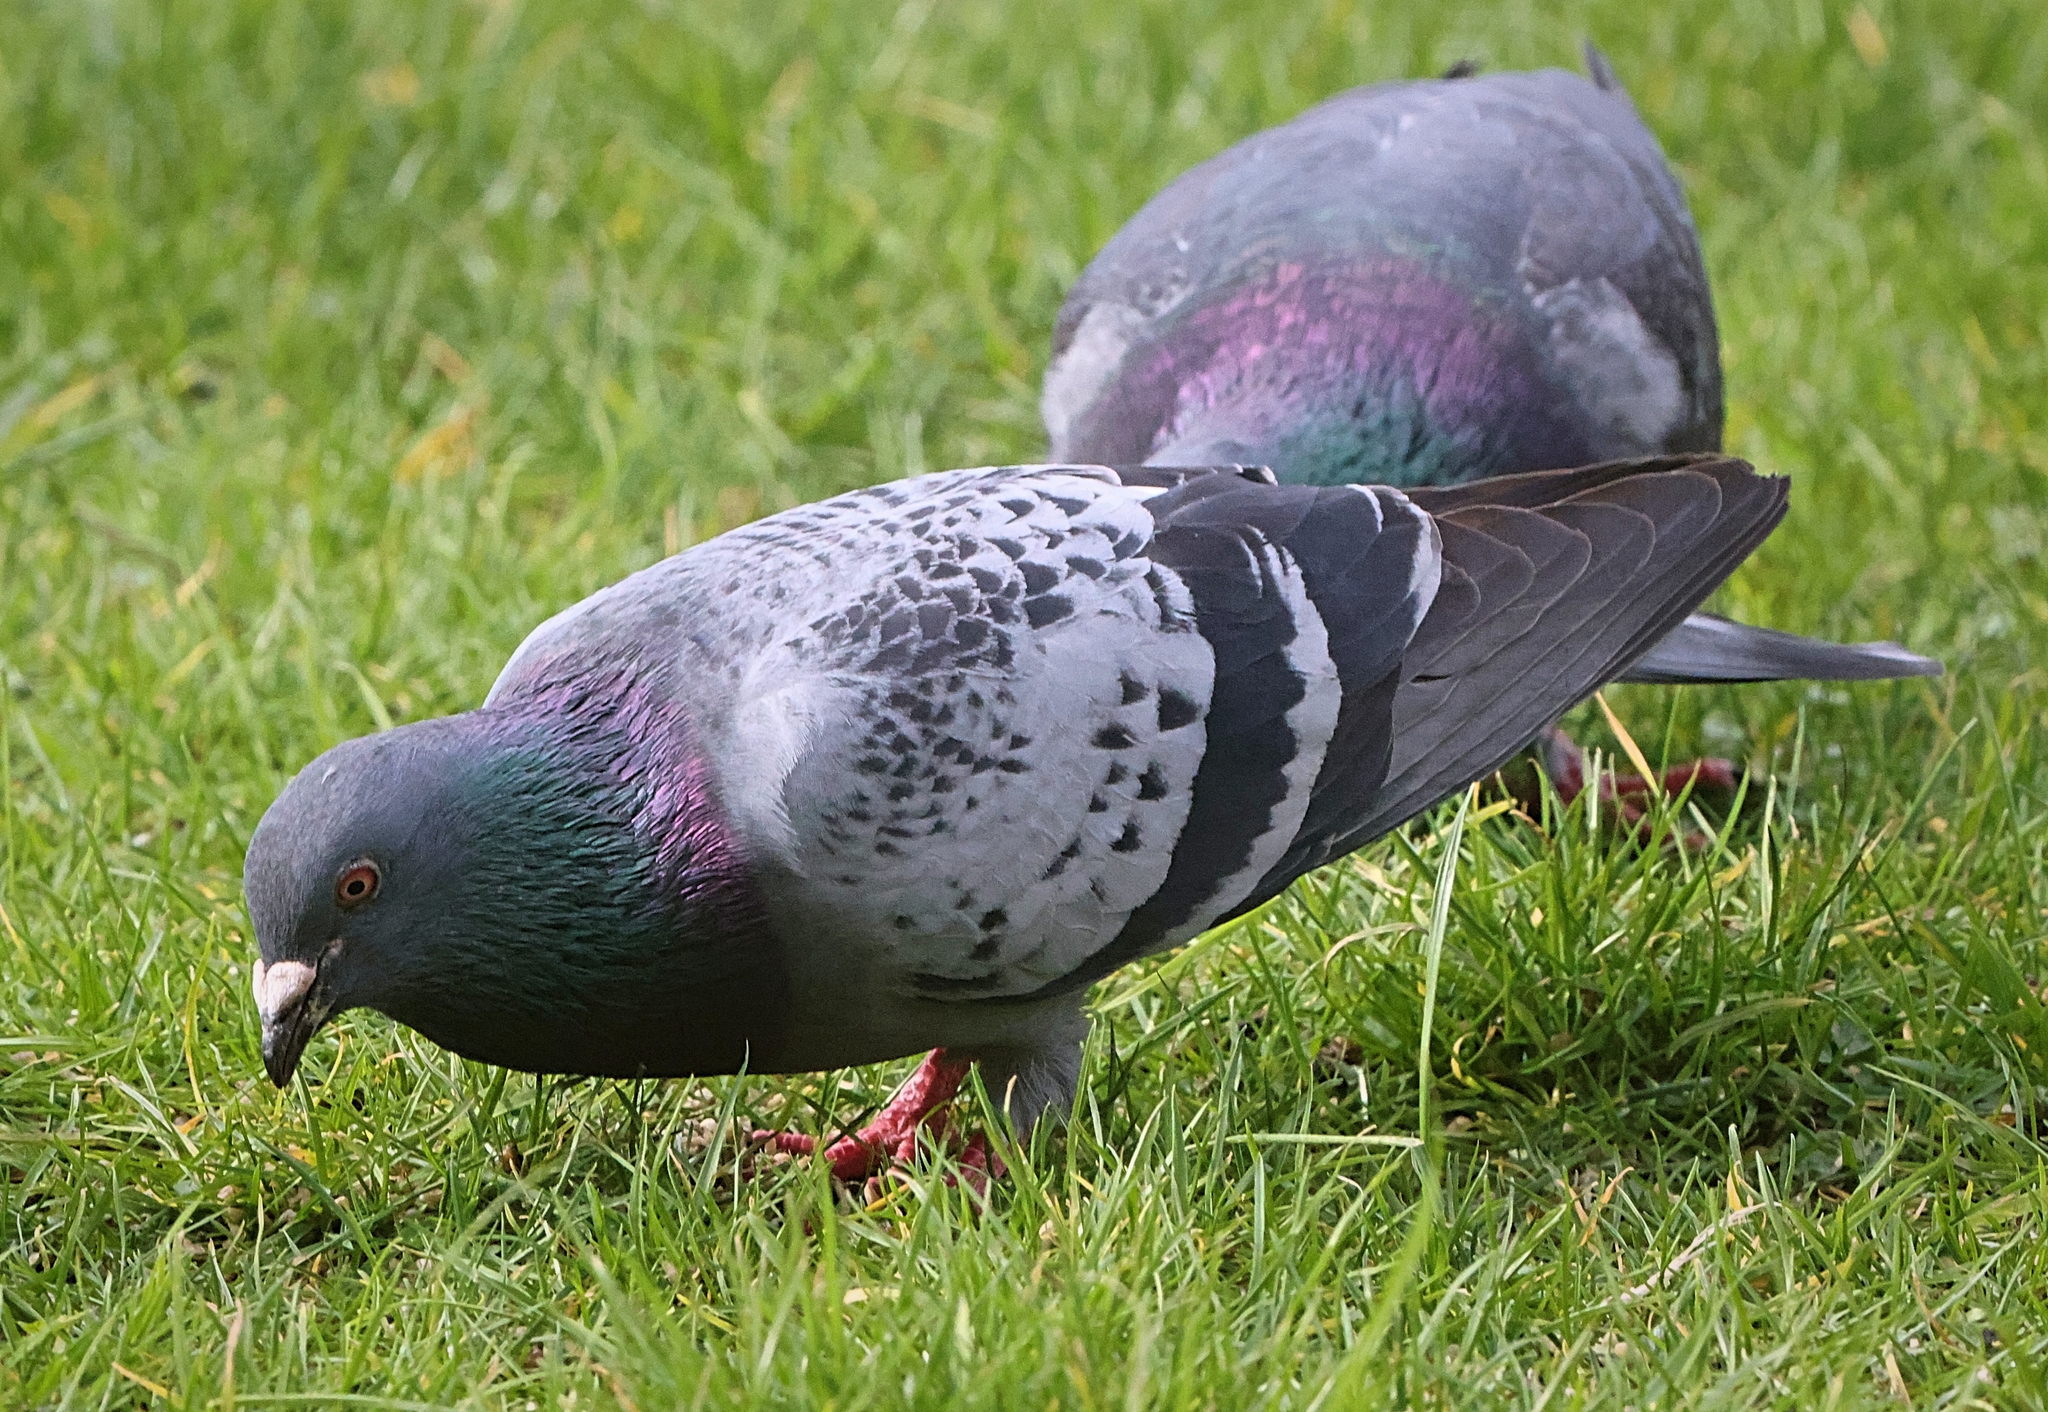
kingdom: Animalia
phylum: Chordata
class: Aves
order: Columbiformes
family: Columbidae
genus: Columba
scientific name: Columba livia
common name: Rock pigeon
